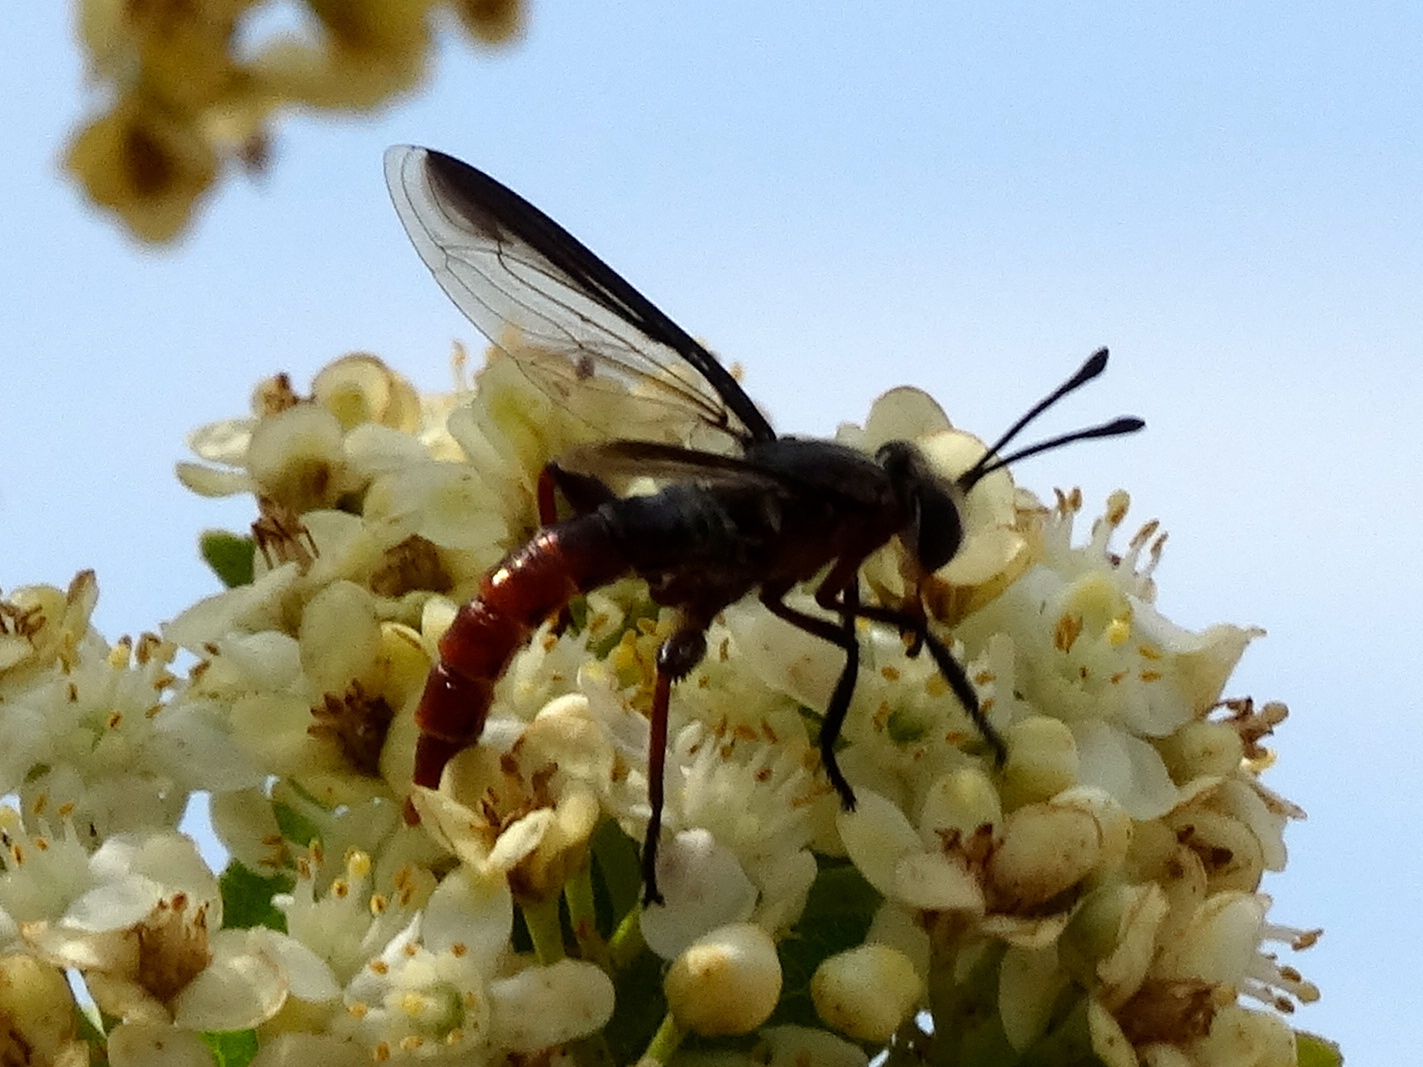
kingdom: Animalia
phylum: Arthropoda
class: Insecta
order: Diptera
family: Mydidae
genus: Stratiomydas
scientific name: Stratiomydas
